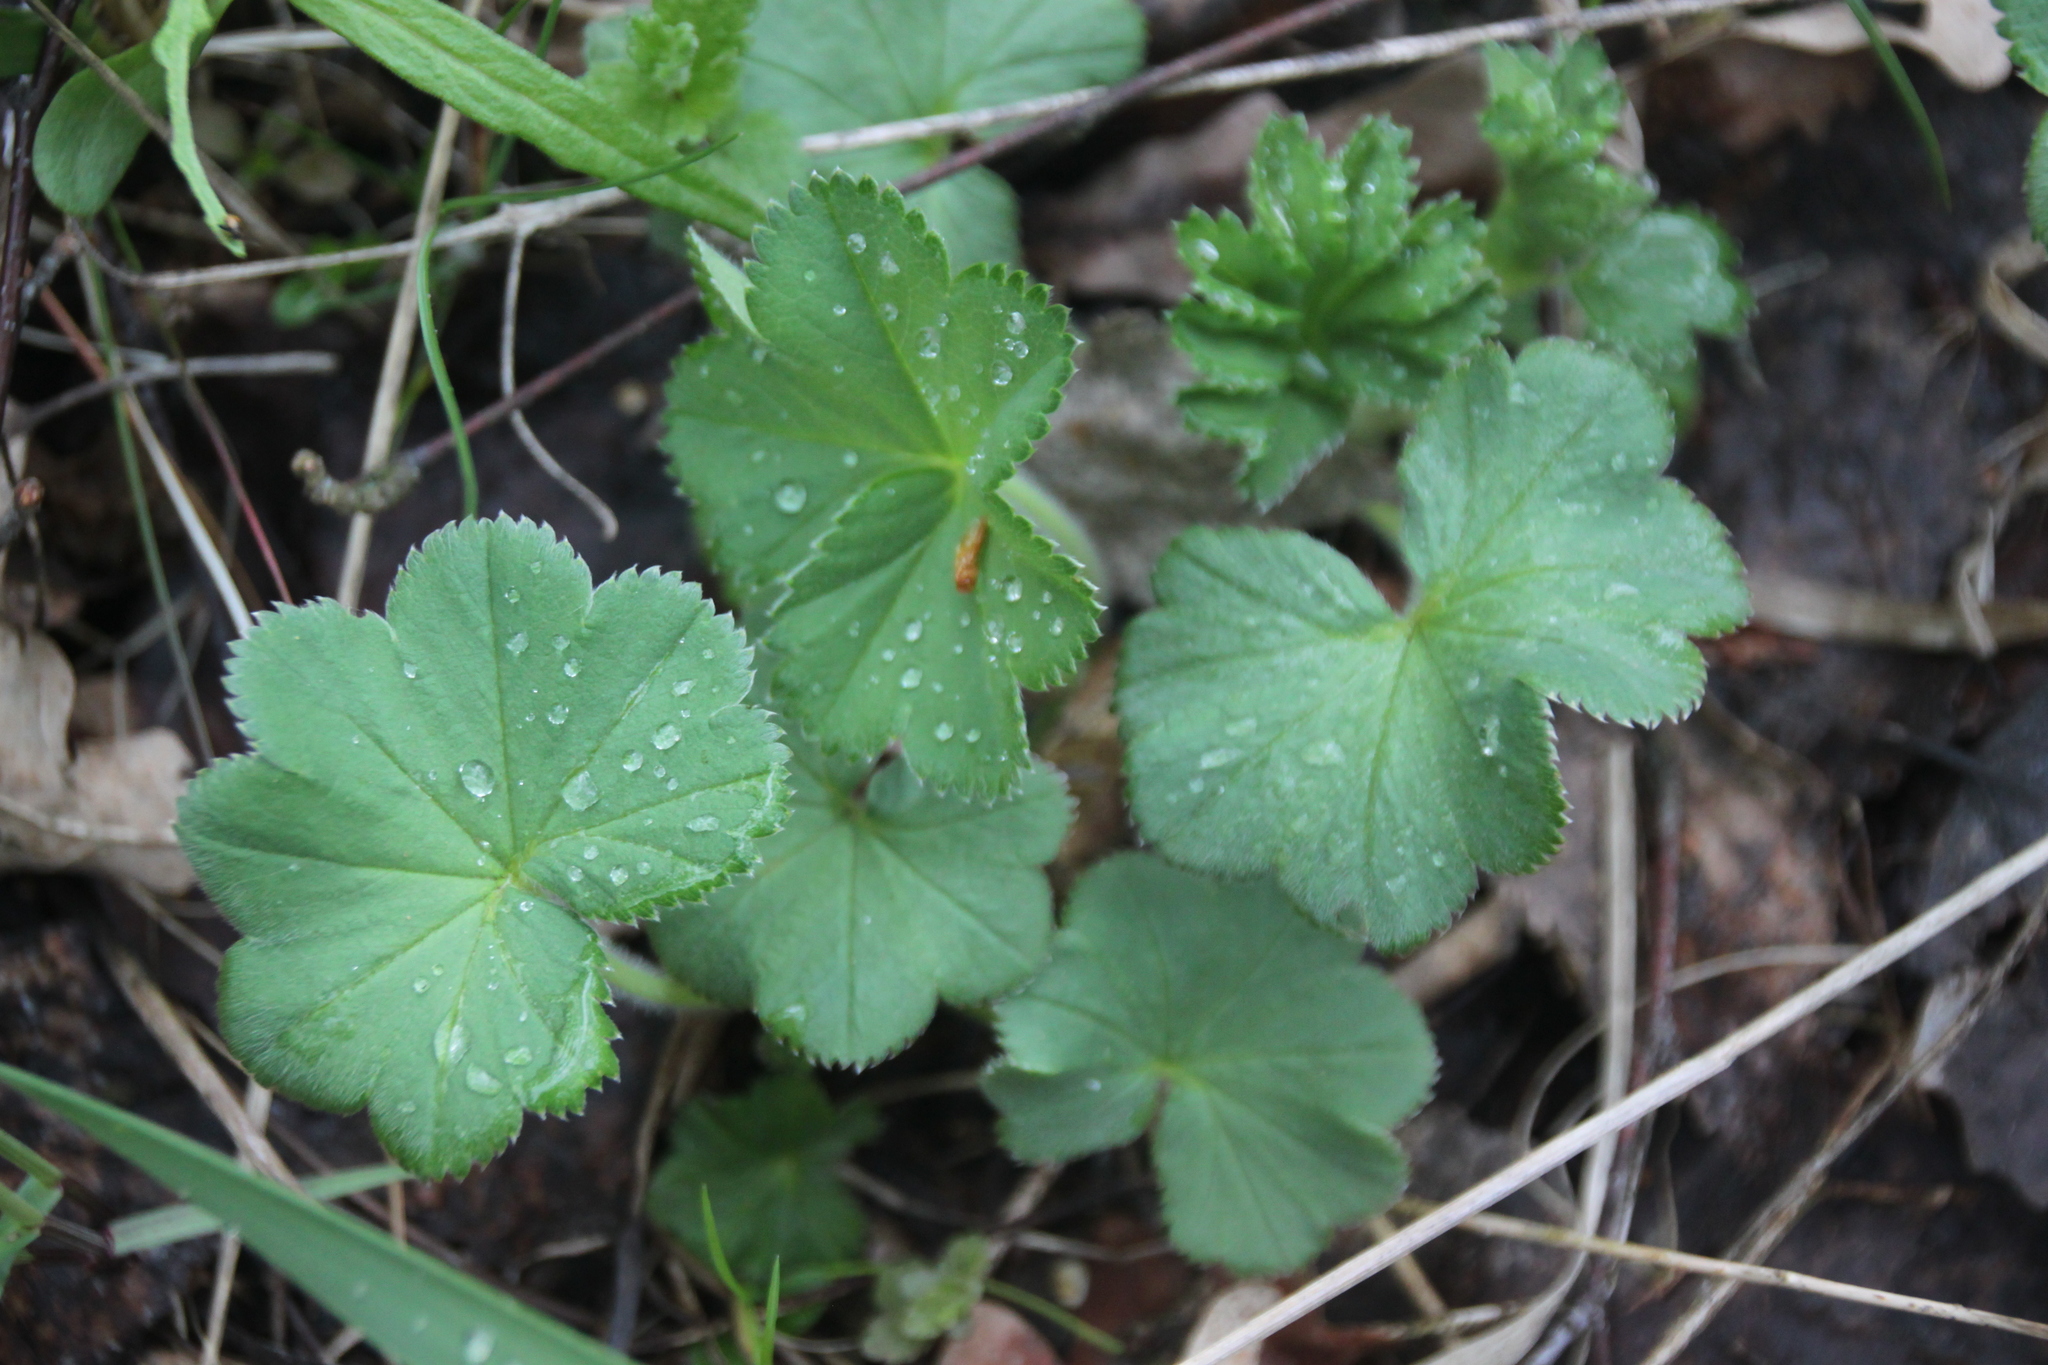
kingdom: Plantae
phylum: Tracheophyta
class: Magnoliopsida
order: Rosales
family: Rosaceae
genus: Alchemilla
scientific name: Alchemilla
